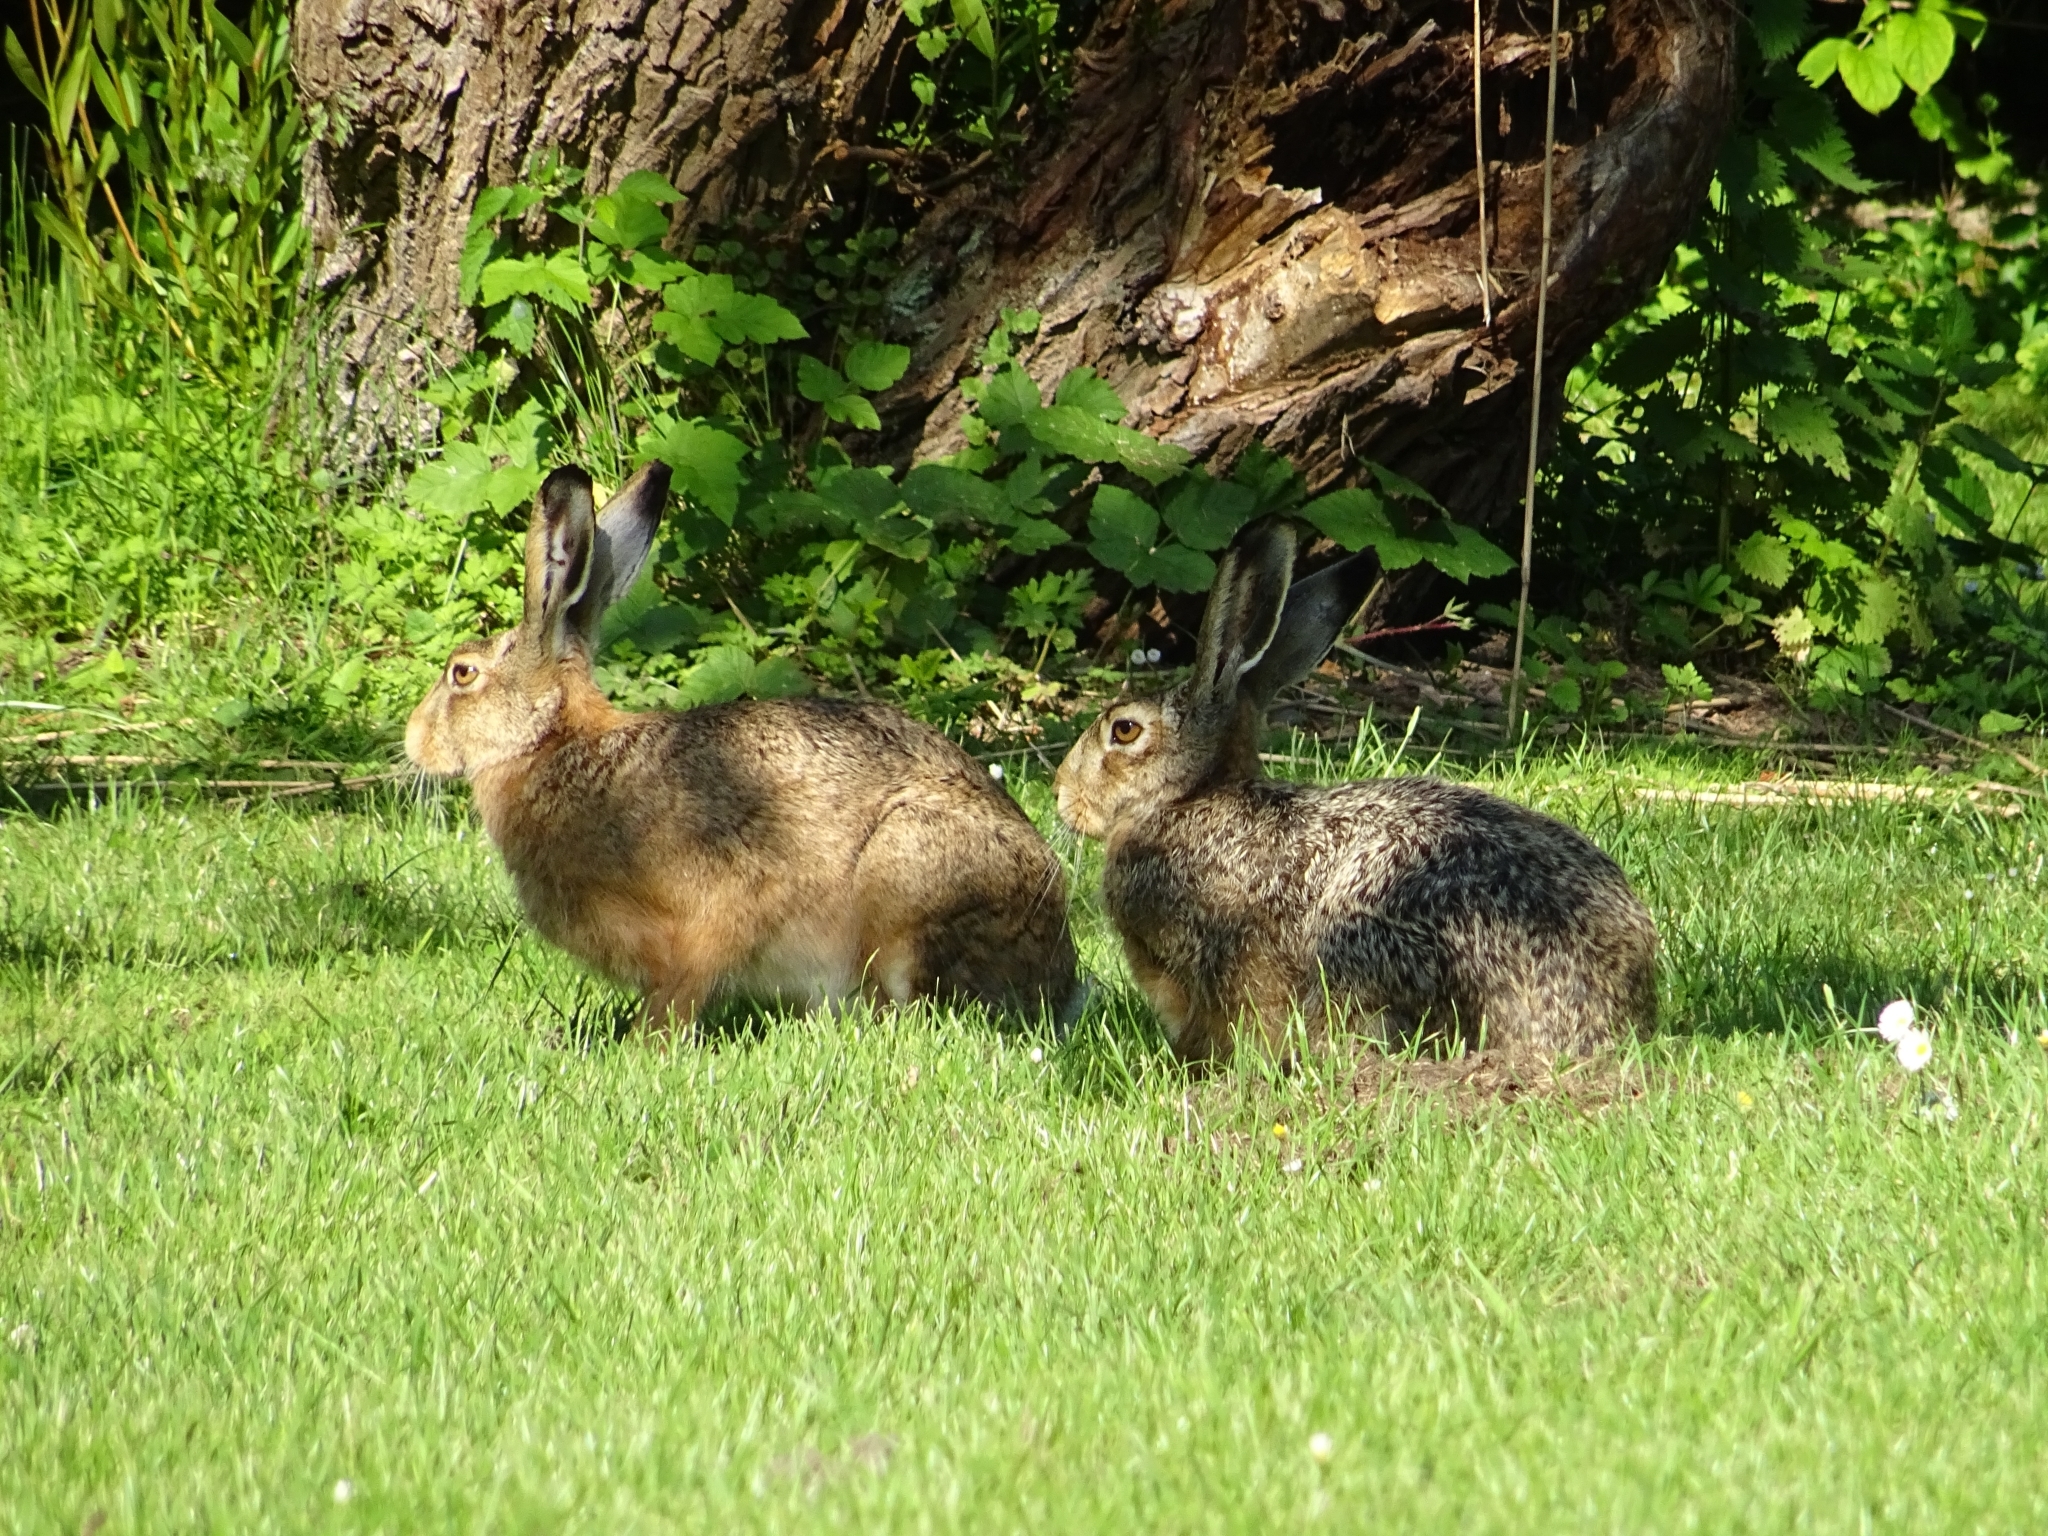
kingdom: Animalia
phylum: Chordata
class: Mammalia
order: Lagomorpha
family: Leporidae
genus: Lepus
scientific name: Lepus europaeus
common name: European hare
